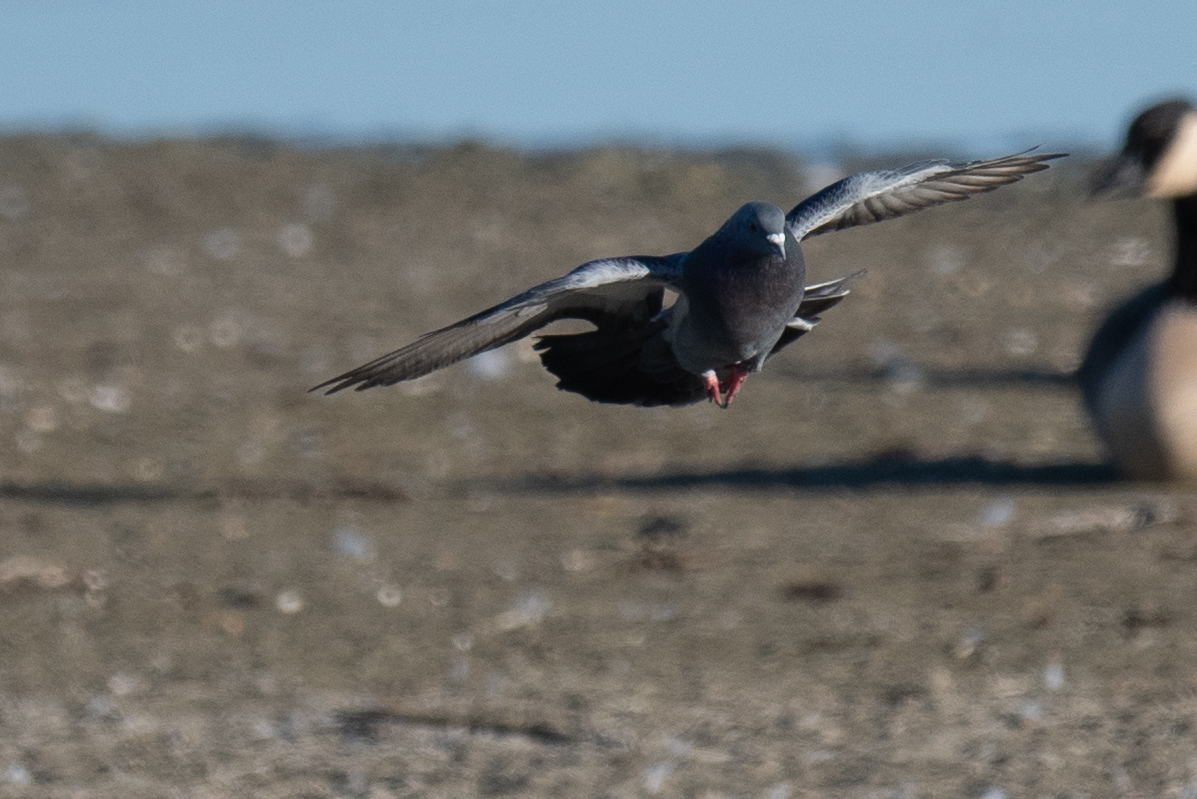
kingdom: Animalia
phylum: Chordata
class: Aves
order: Columbiformes
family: Columbidae
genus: Columba
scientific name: Columba livia
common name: Rock pigeon
